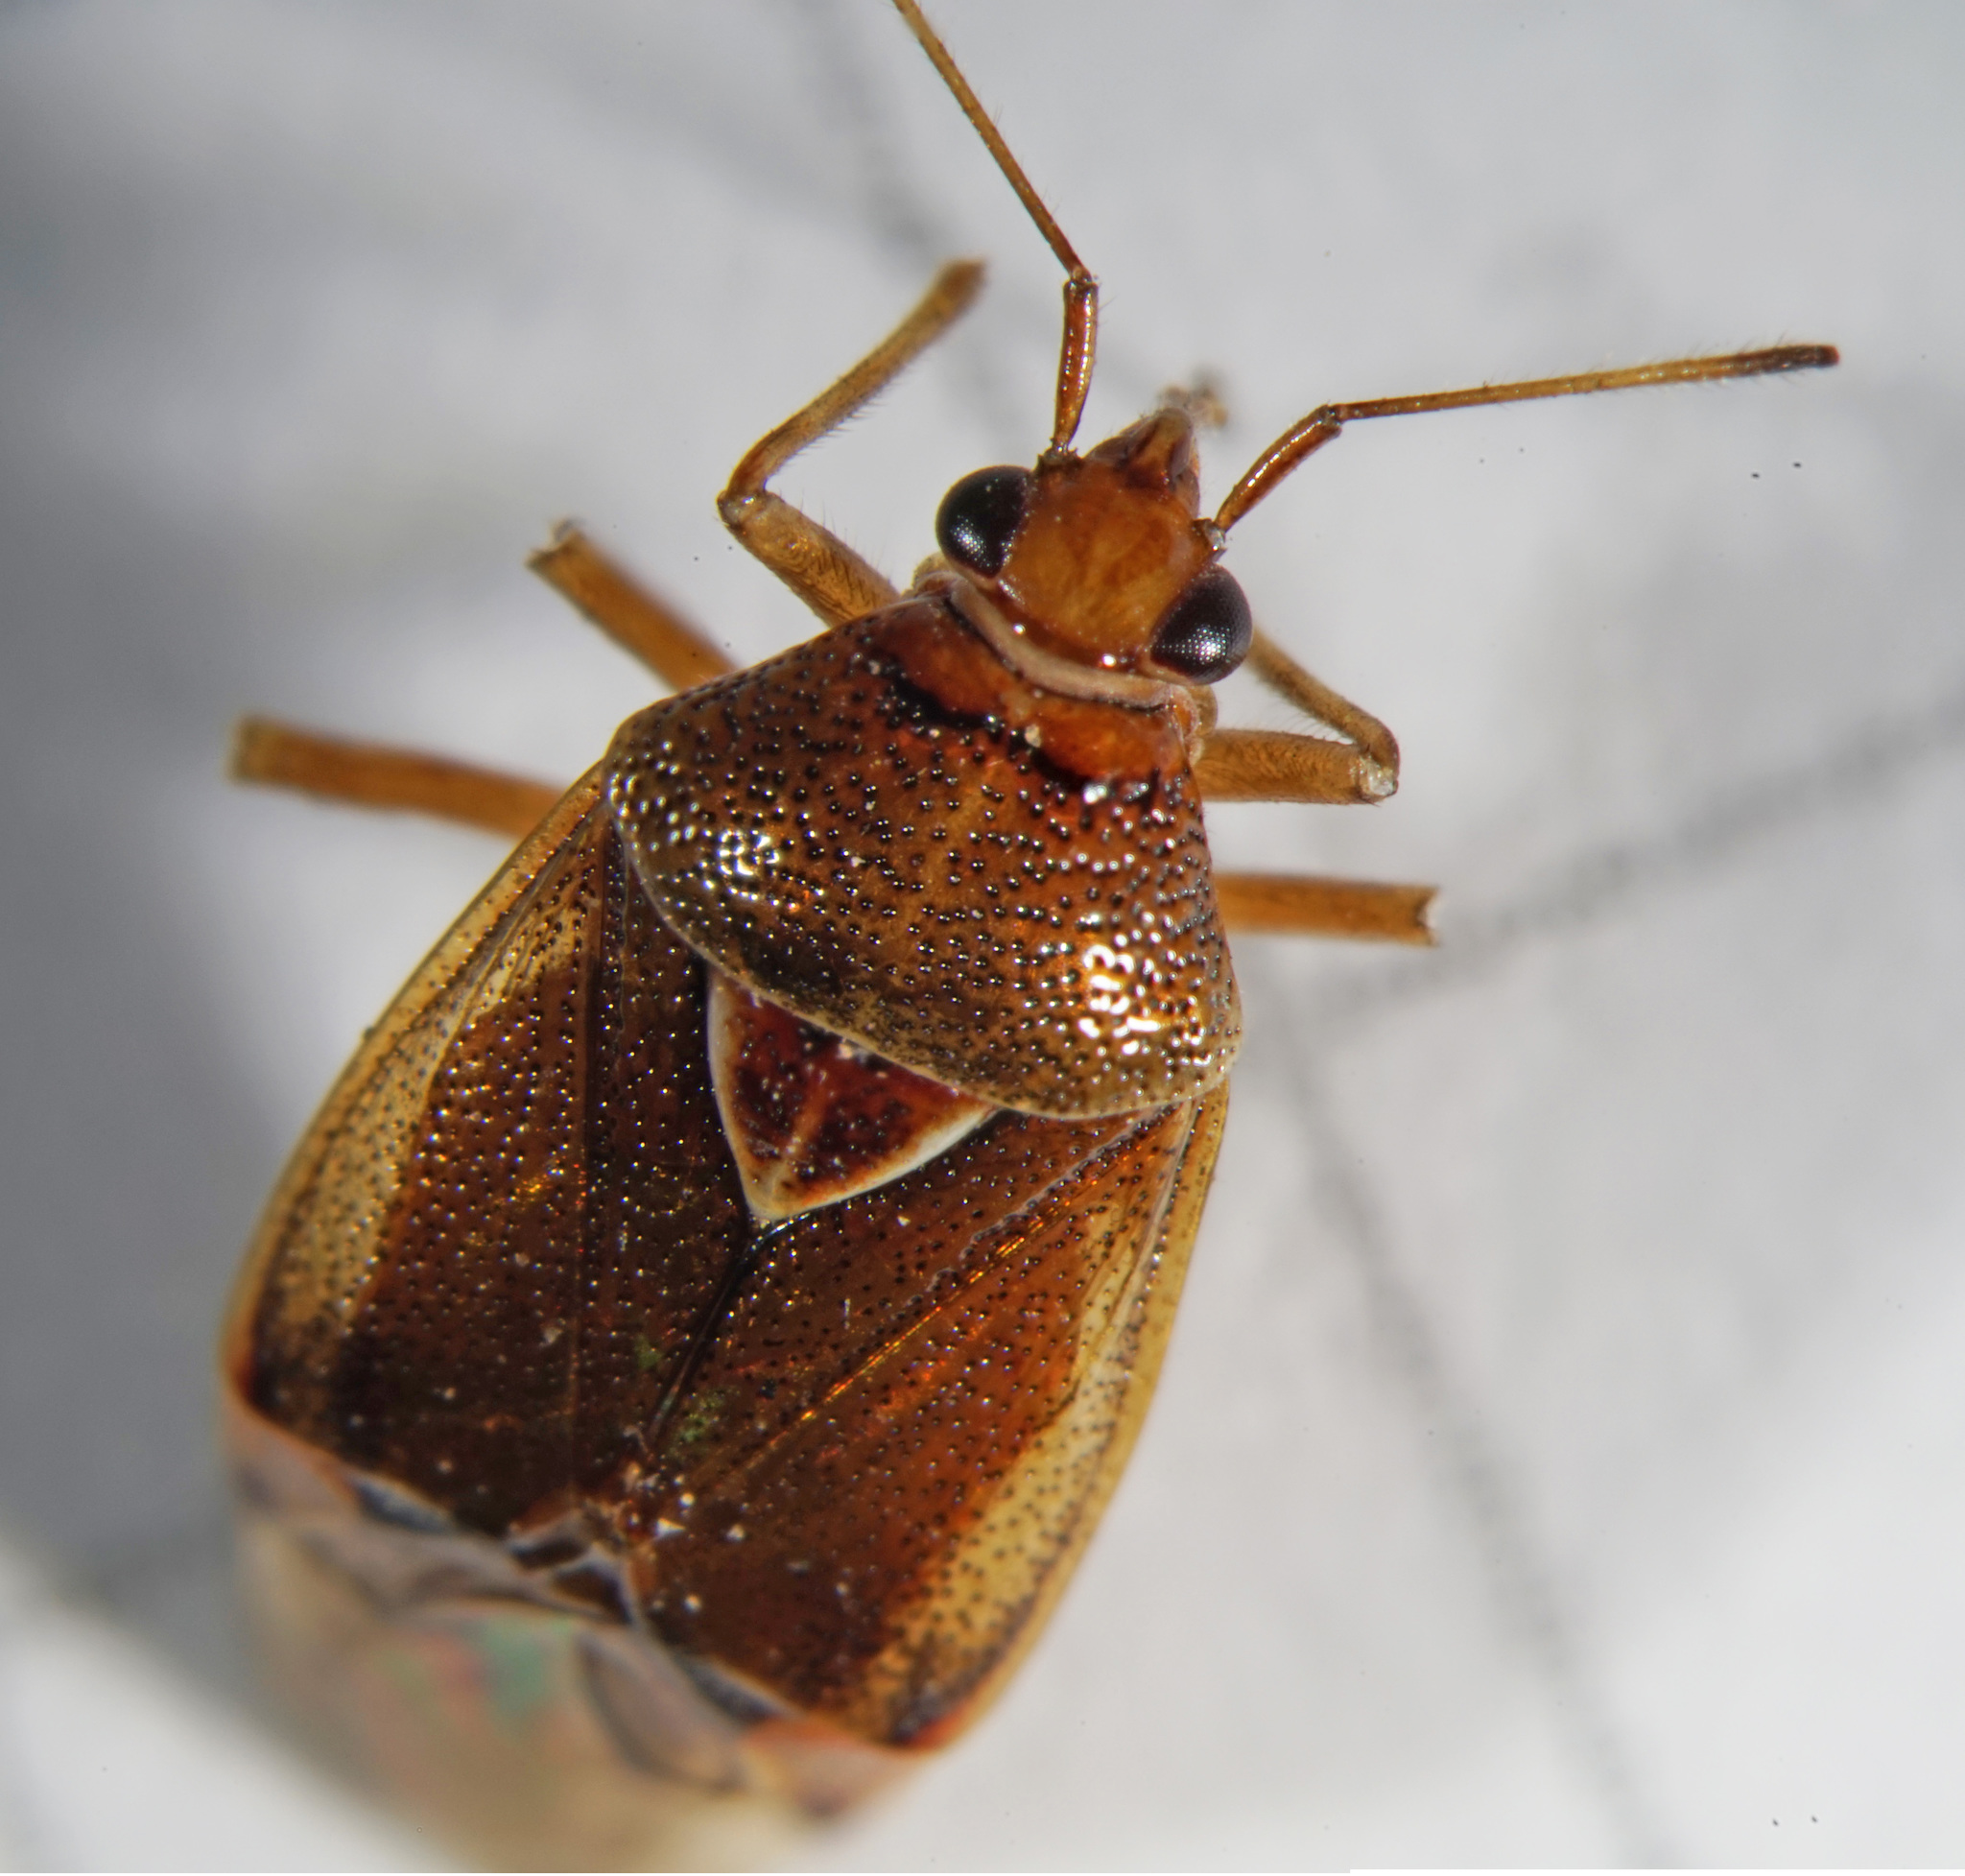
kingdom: Animalia
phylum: Arthropoda
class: Insecta
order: Hemiptera
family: Miridae
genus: Deraeocoris
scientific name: Deraeocoris flavilinea
